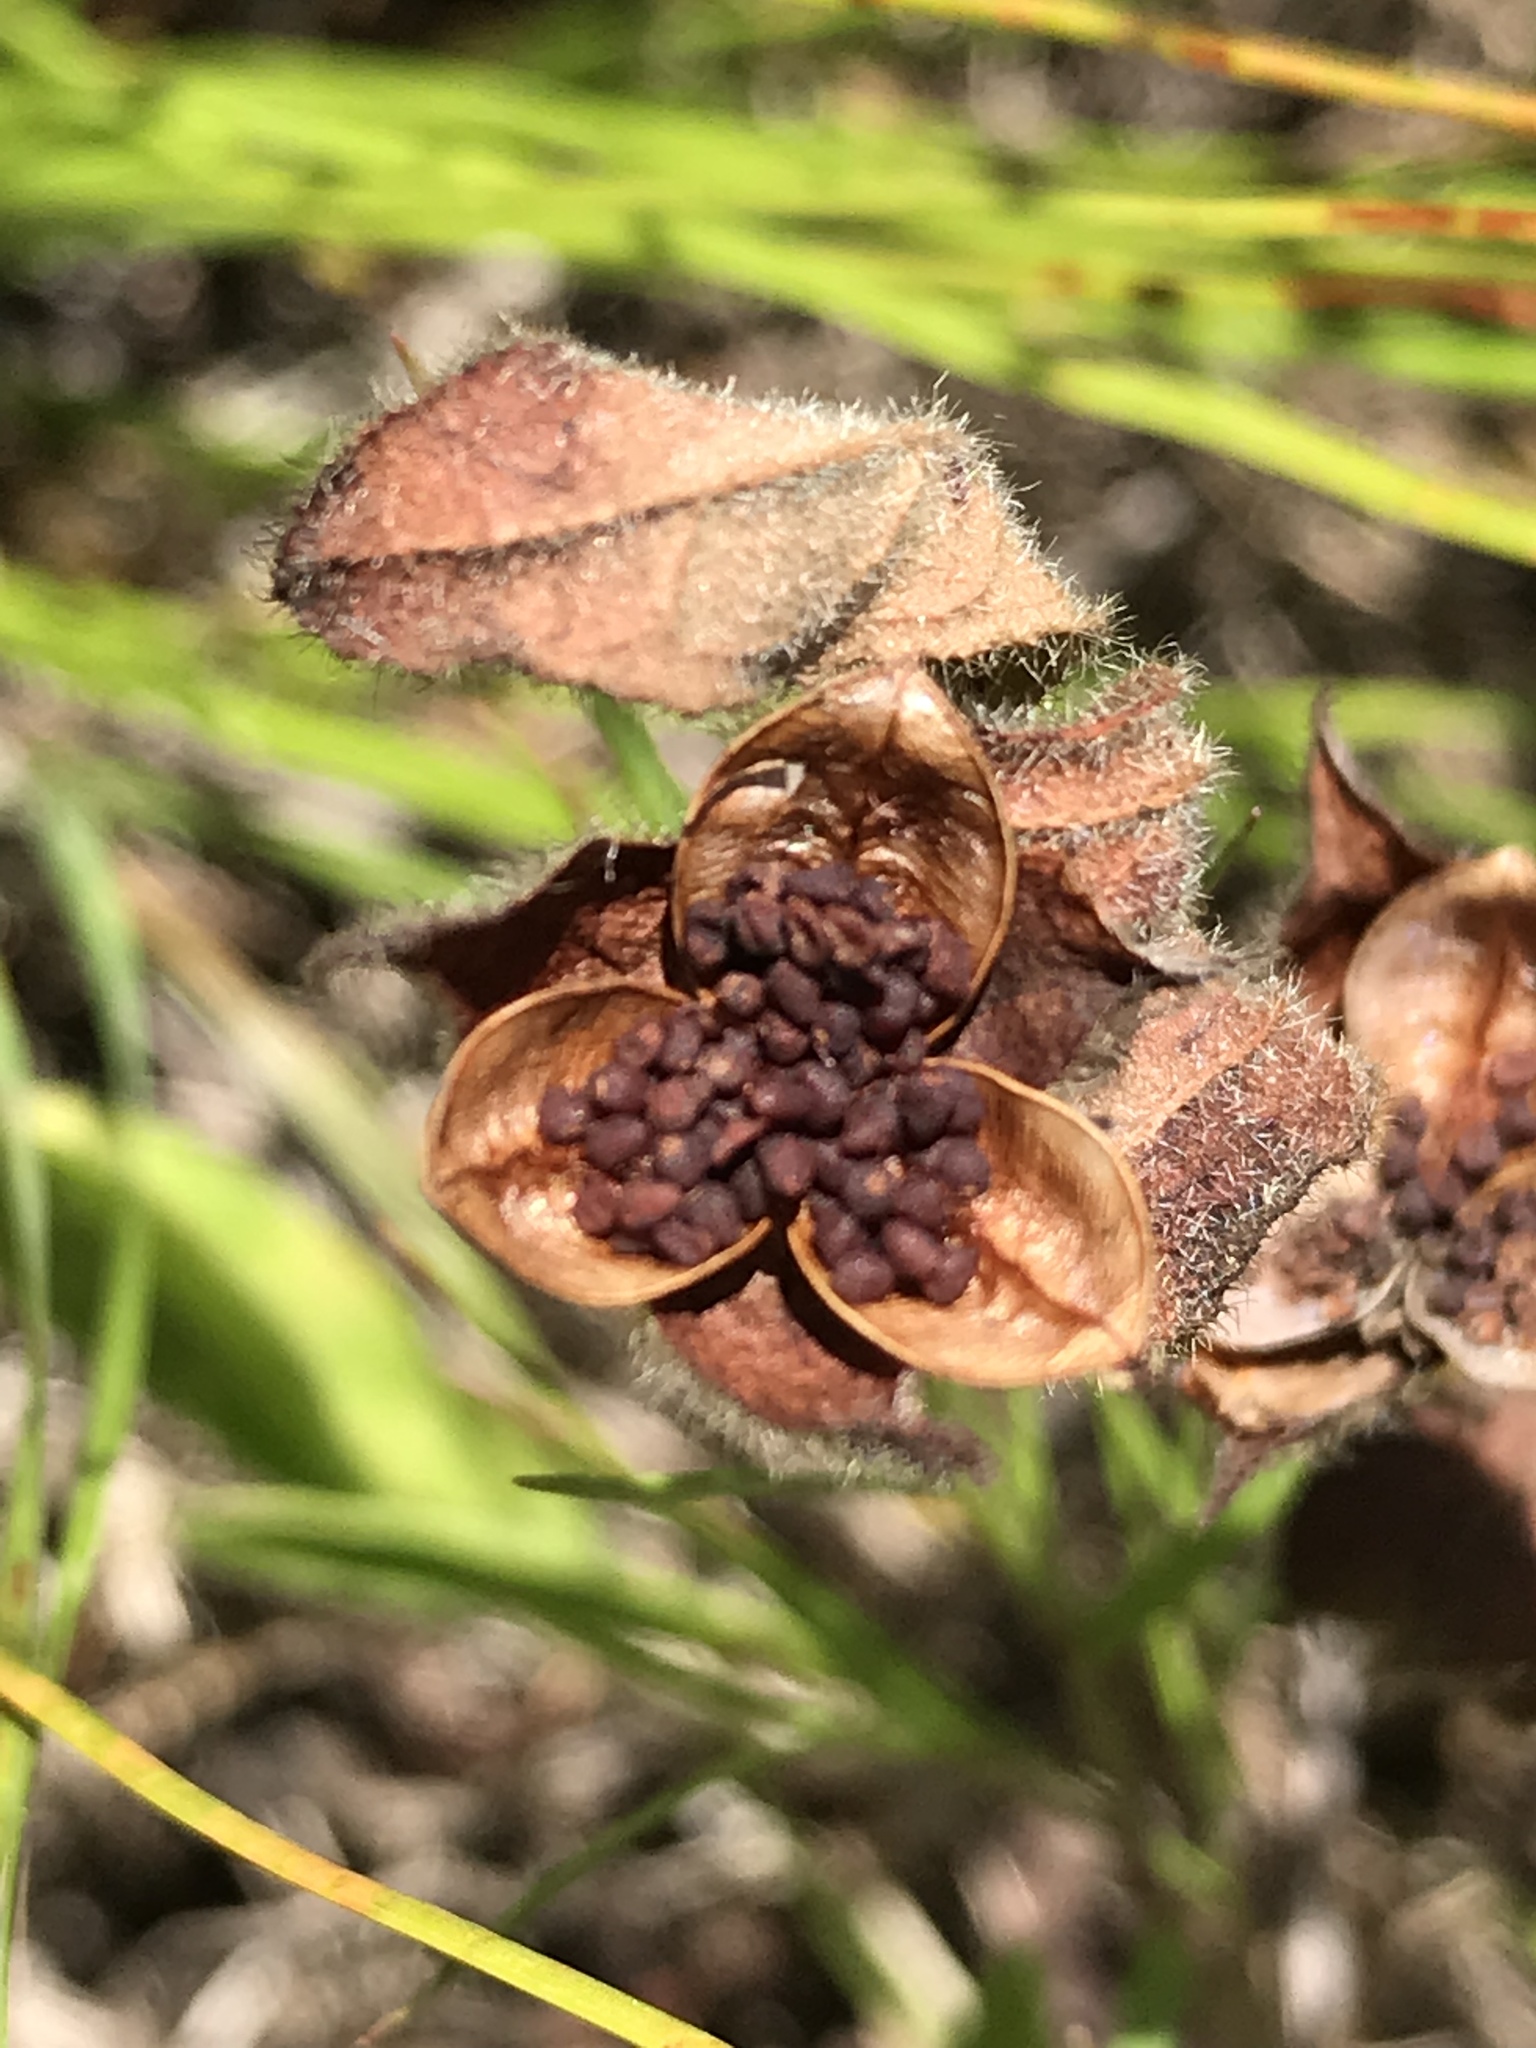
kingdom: Plantae
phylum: Tracheophyta
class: Magnoliopsida
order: Malvales
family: Cistaceae
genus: Crocanthemum
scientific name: Crocanthemum carolinianum
